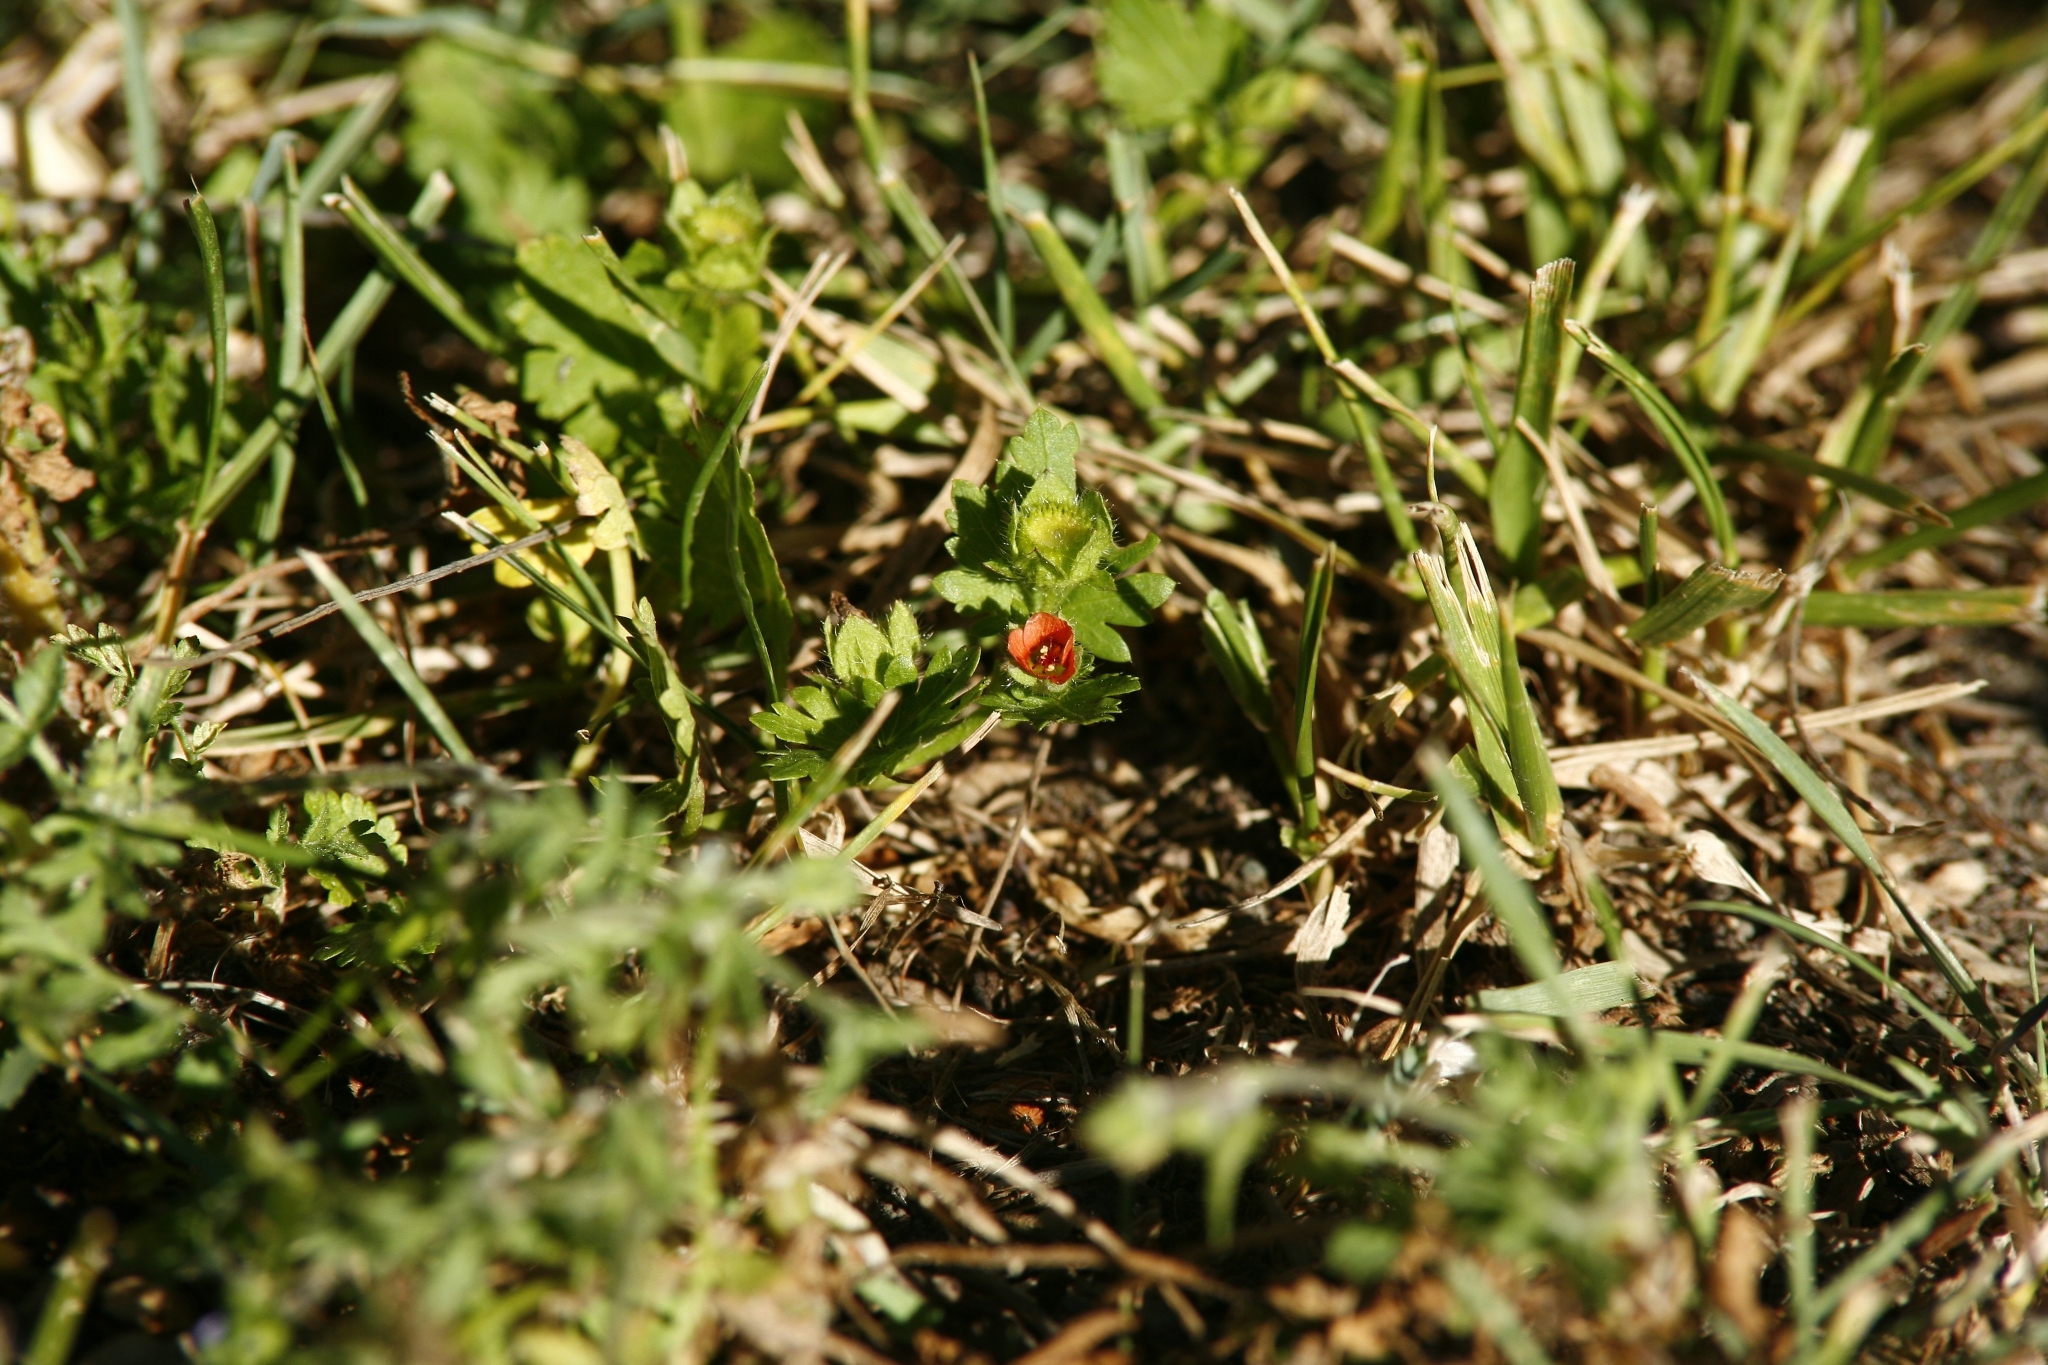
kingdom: Plantae
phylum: Tracheophyta
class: Magnoliopsida
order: Malvales
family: Malvaceae
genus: Modiola
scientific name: Modiola caroliniana
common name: Carolina bristlemallow
